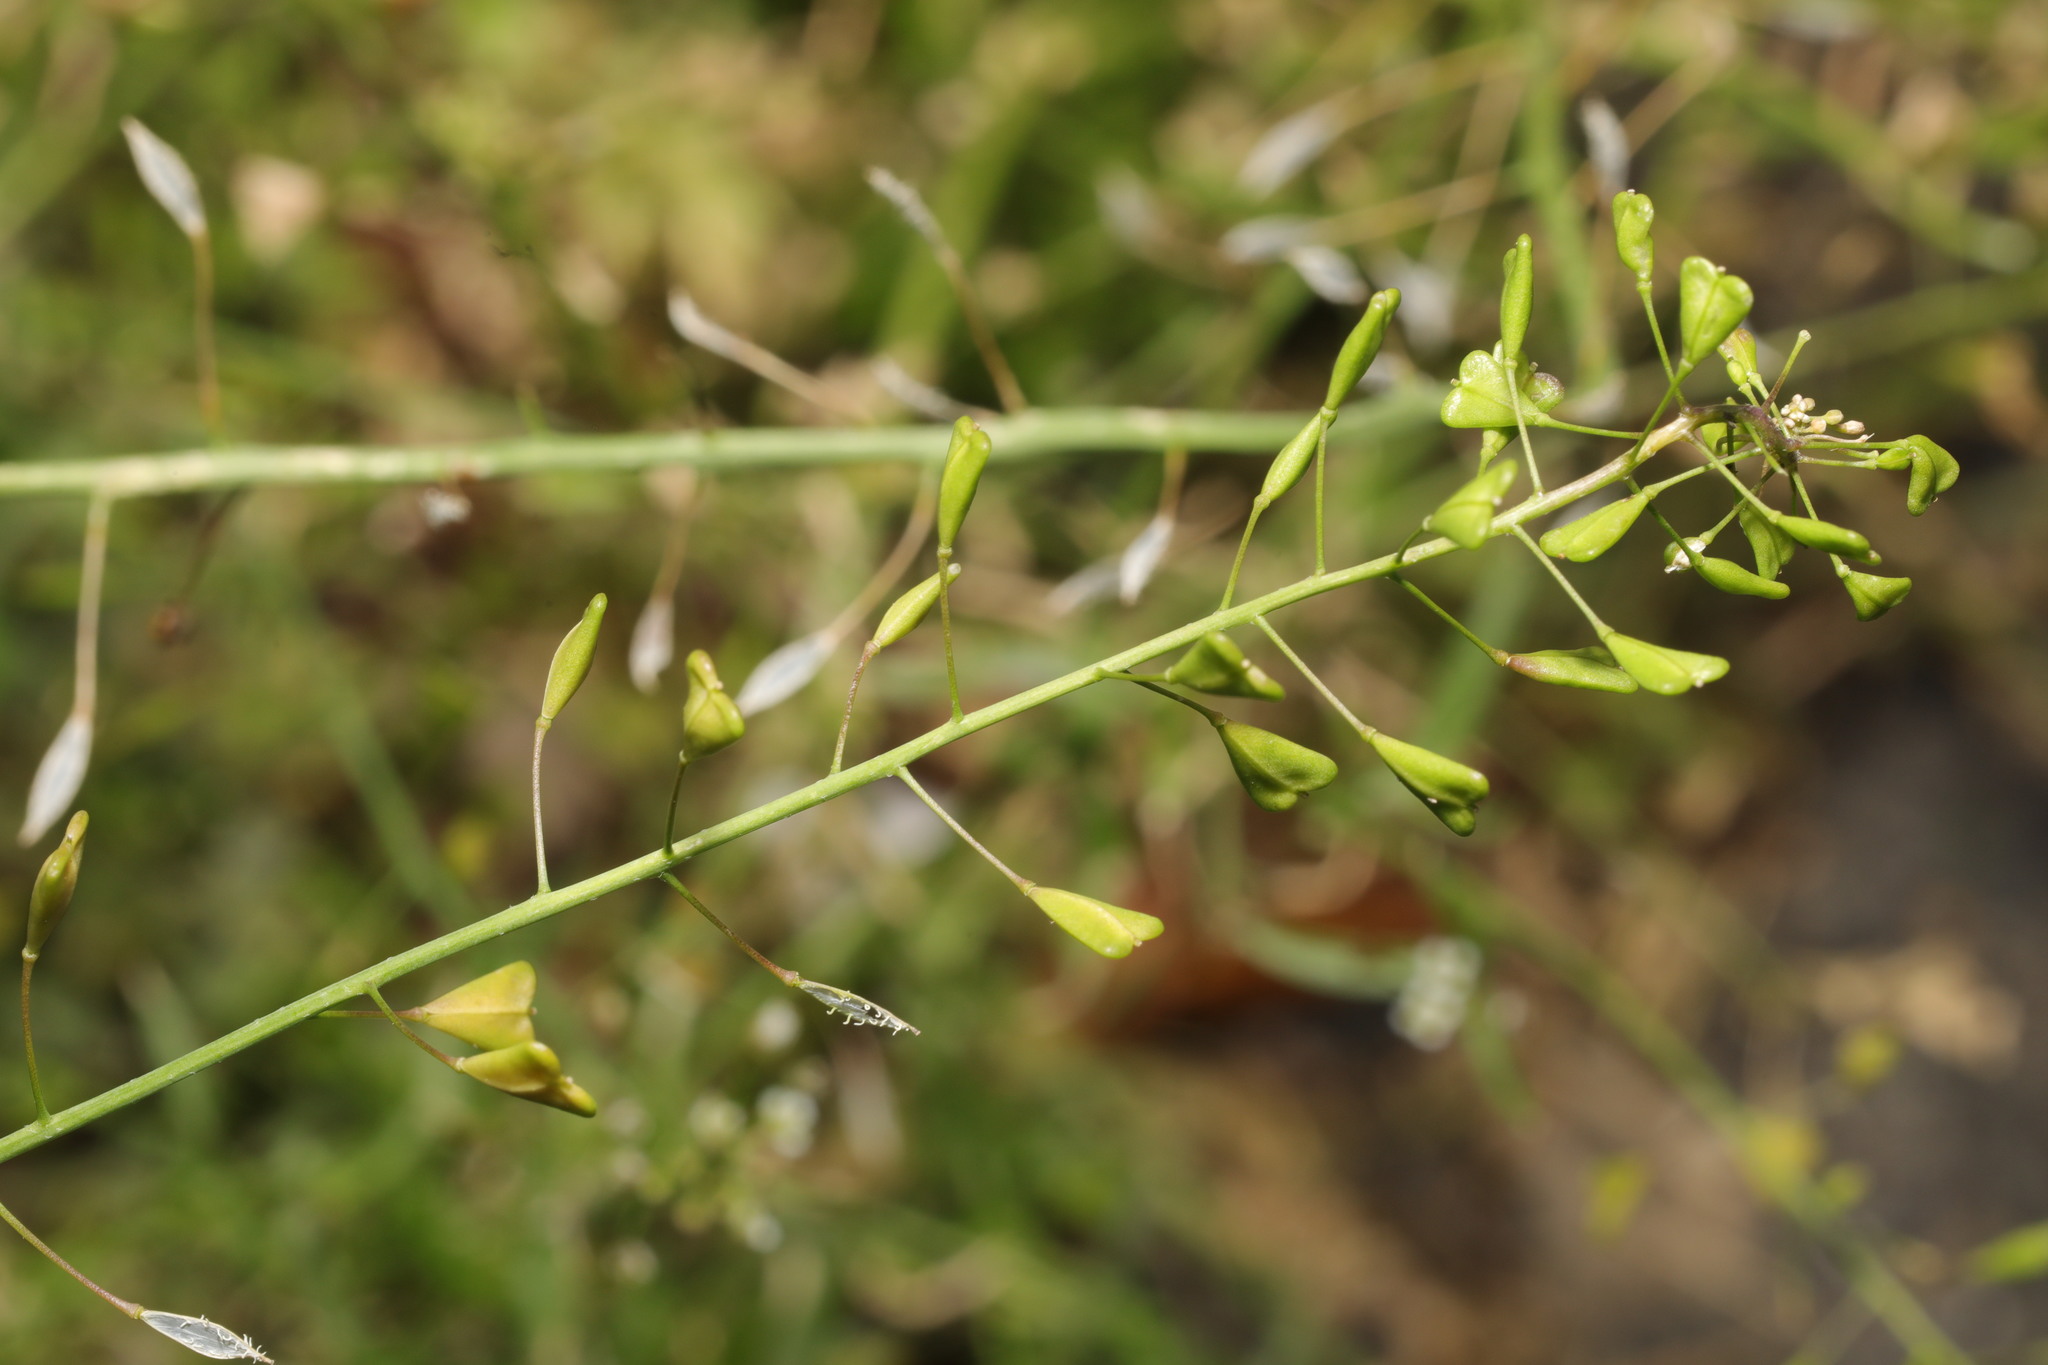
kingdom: Plantae
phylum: Tracheophyta
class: Magnoliopsida
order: Brassicales
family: Brassicaceae
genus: Capsella
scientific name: Capsella bursa-pastoris
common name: Shepherd's purse
